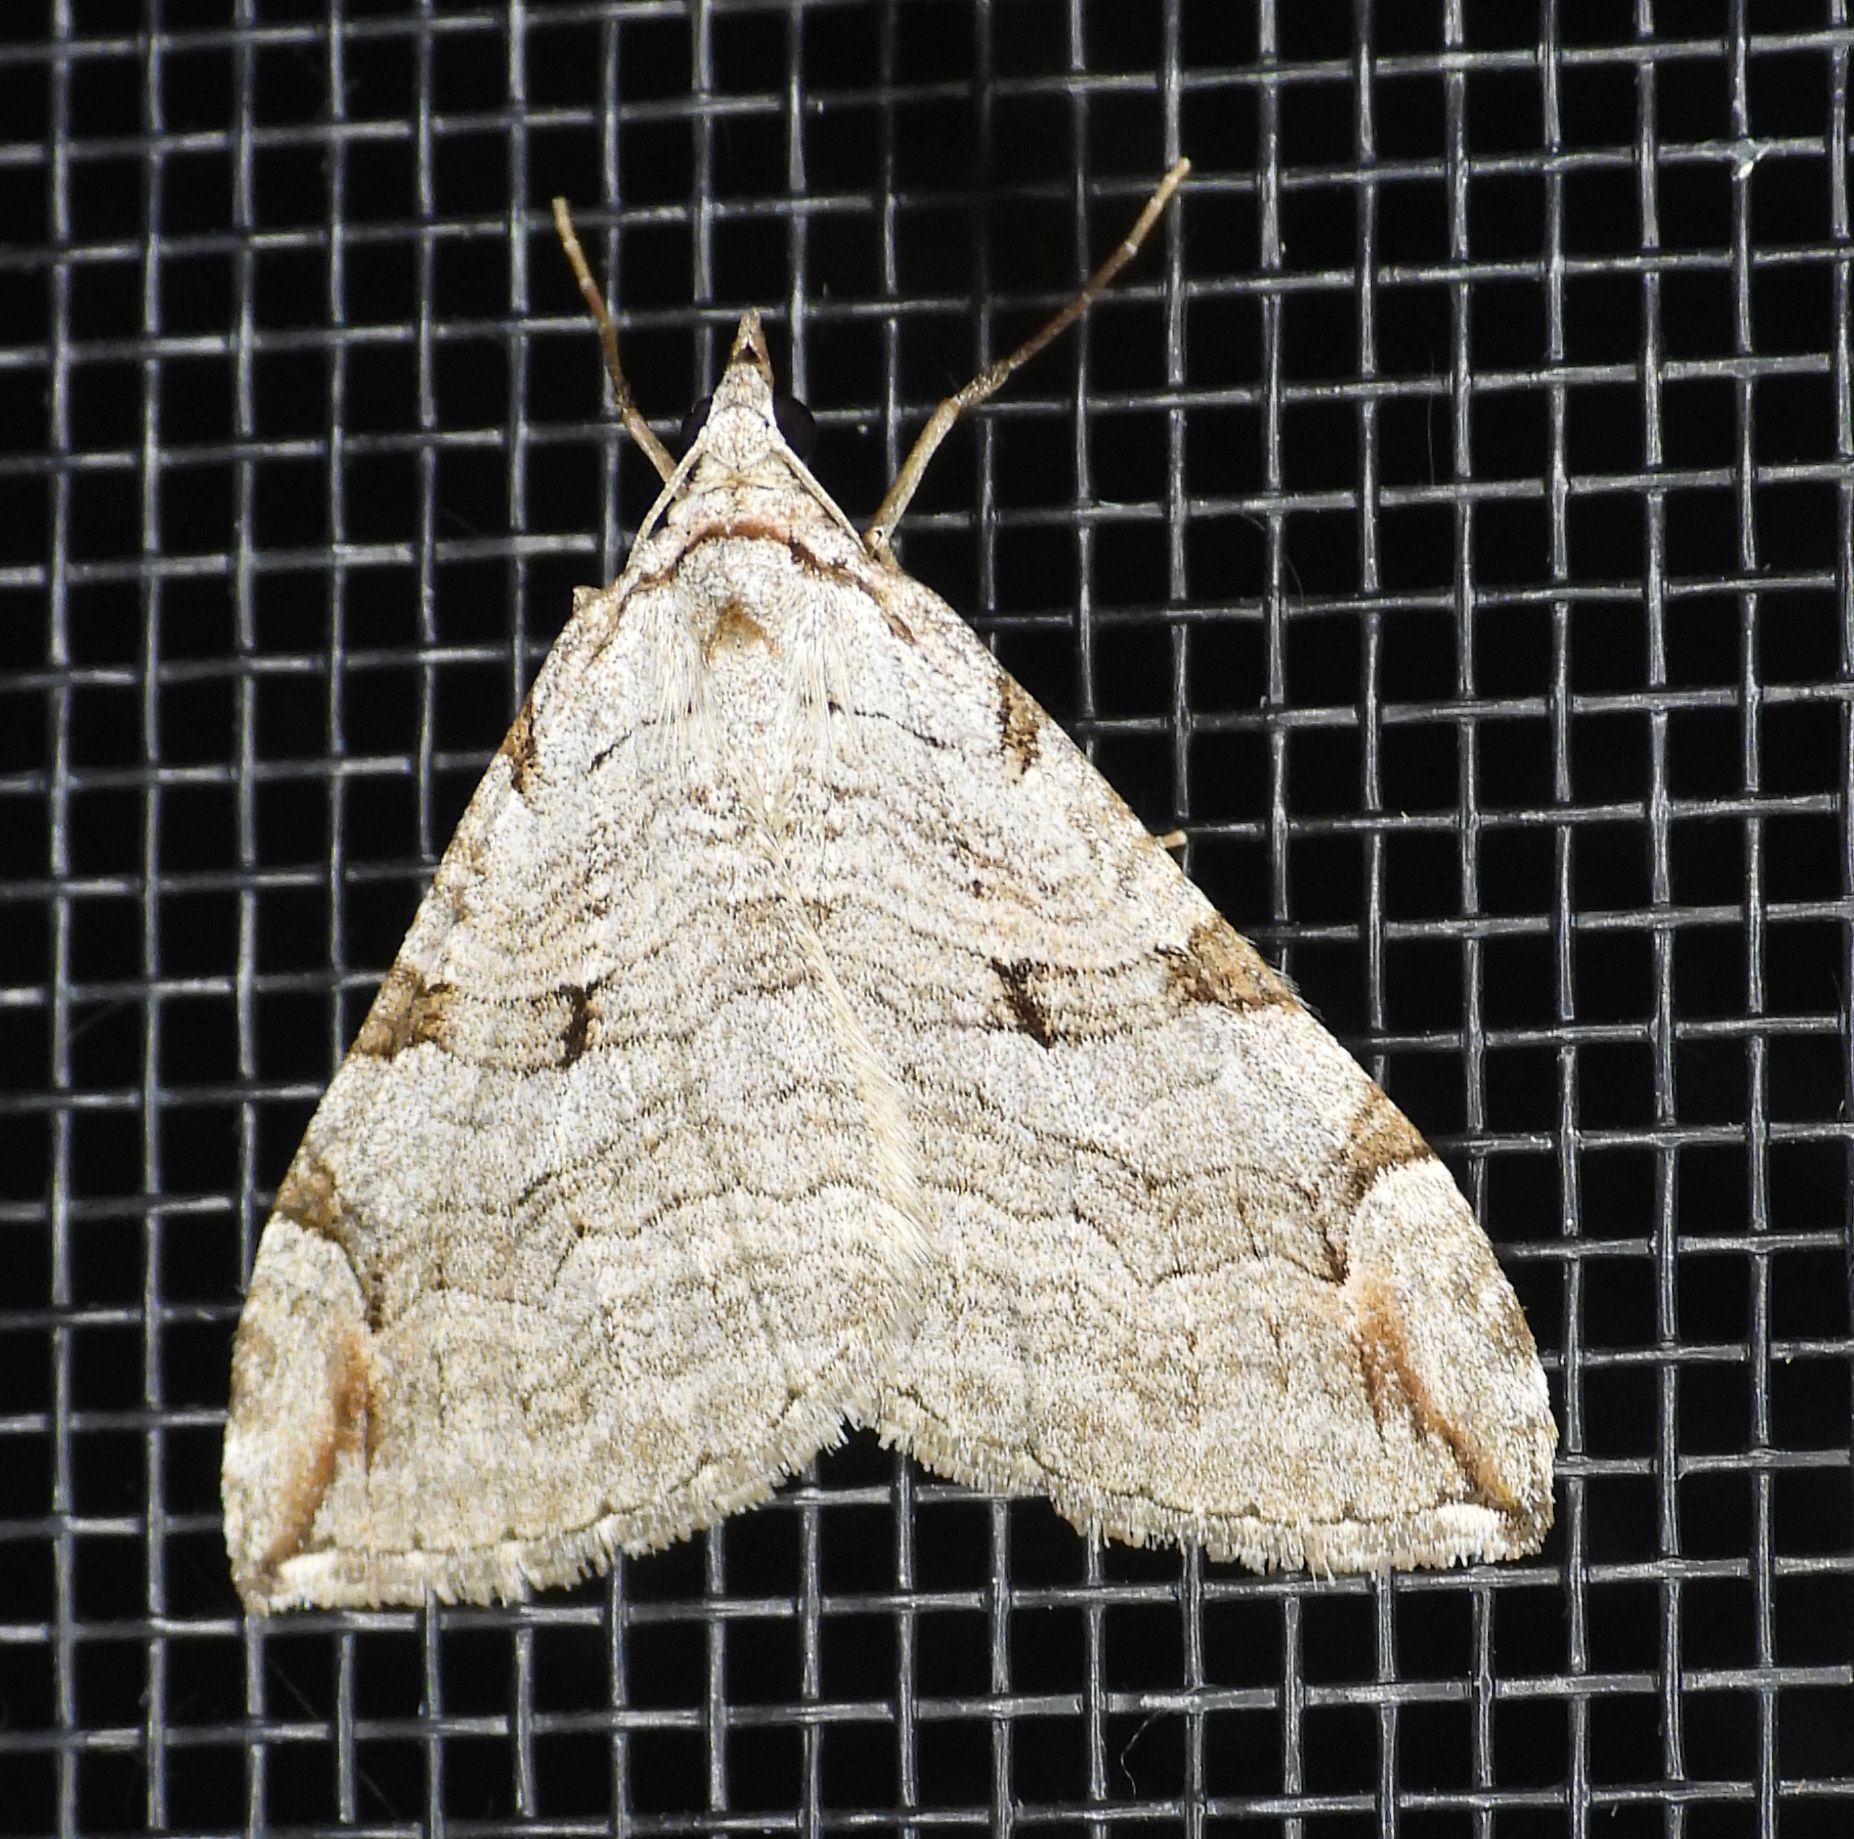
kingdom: Animalia
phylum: Arthropoda
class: Insecta
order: Lepidoptera
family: Geometridae
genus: Aplocera
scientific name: Aplocera plagiata
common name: Treble-bar
